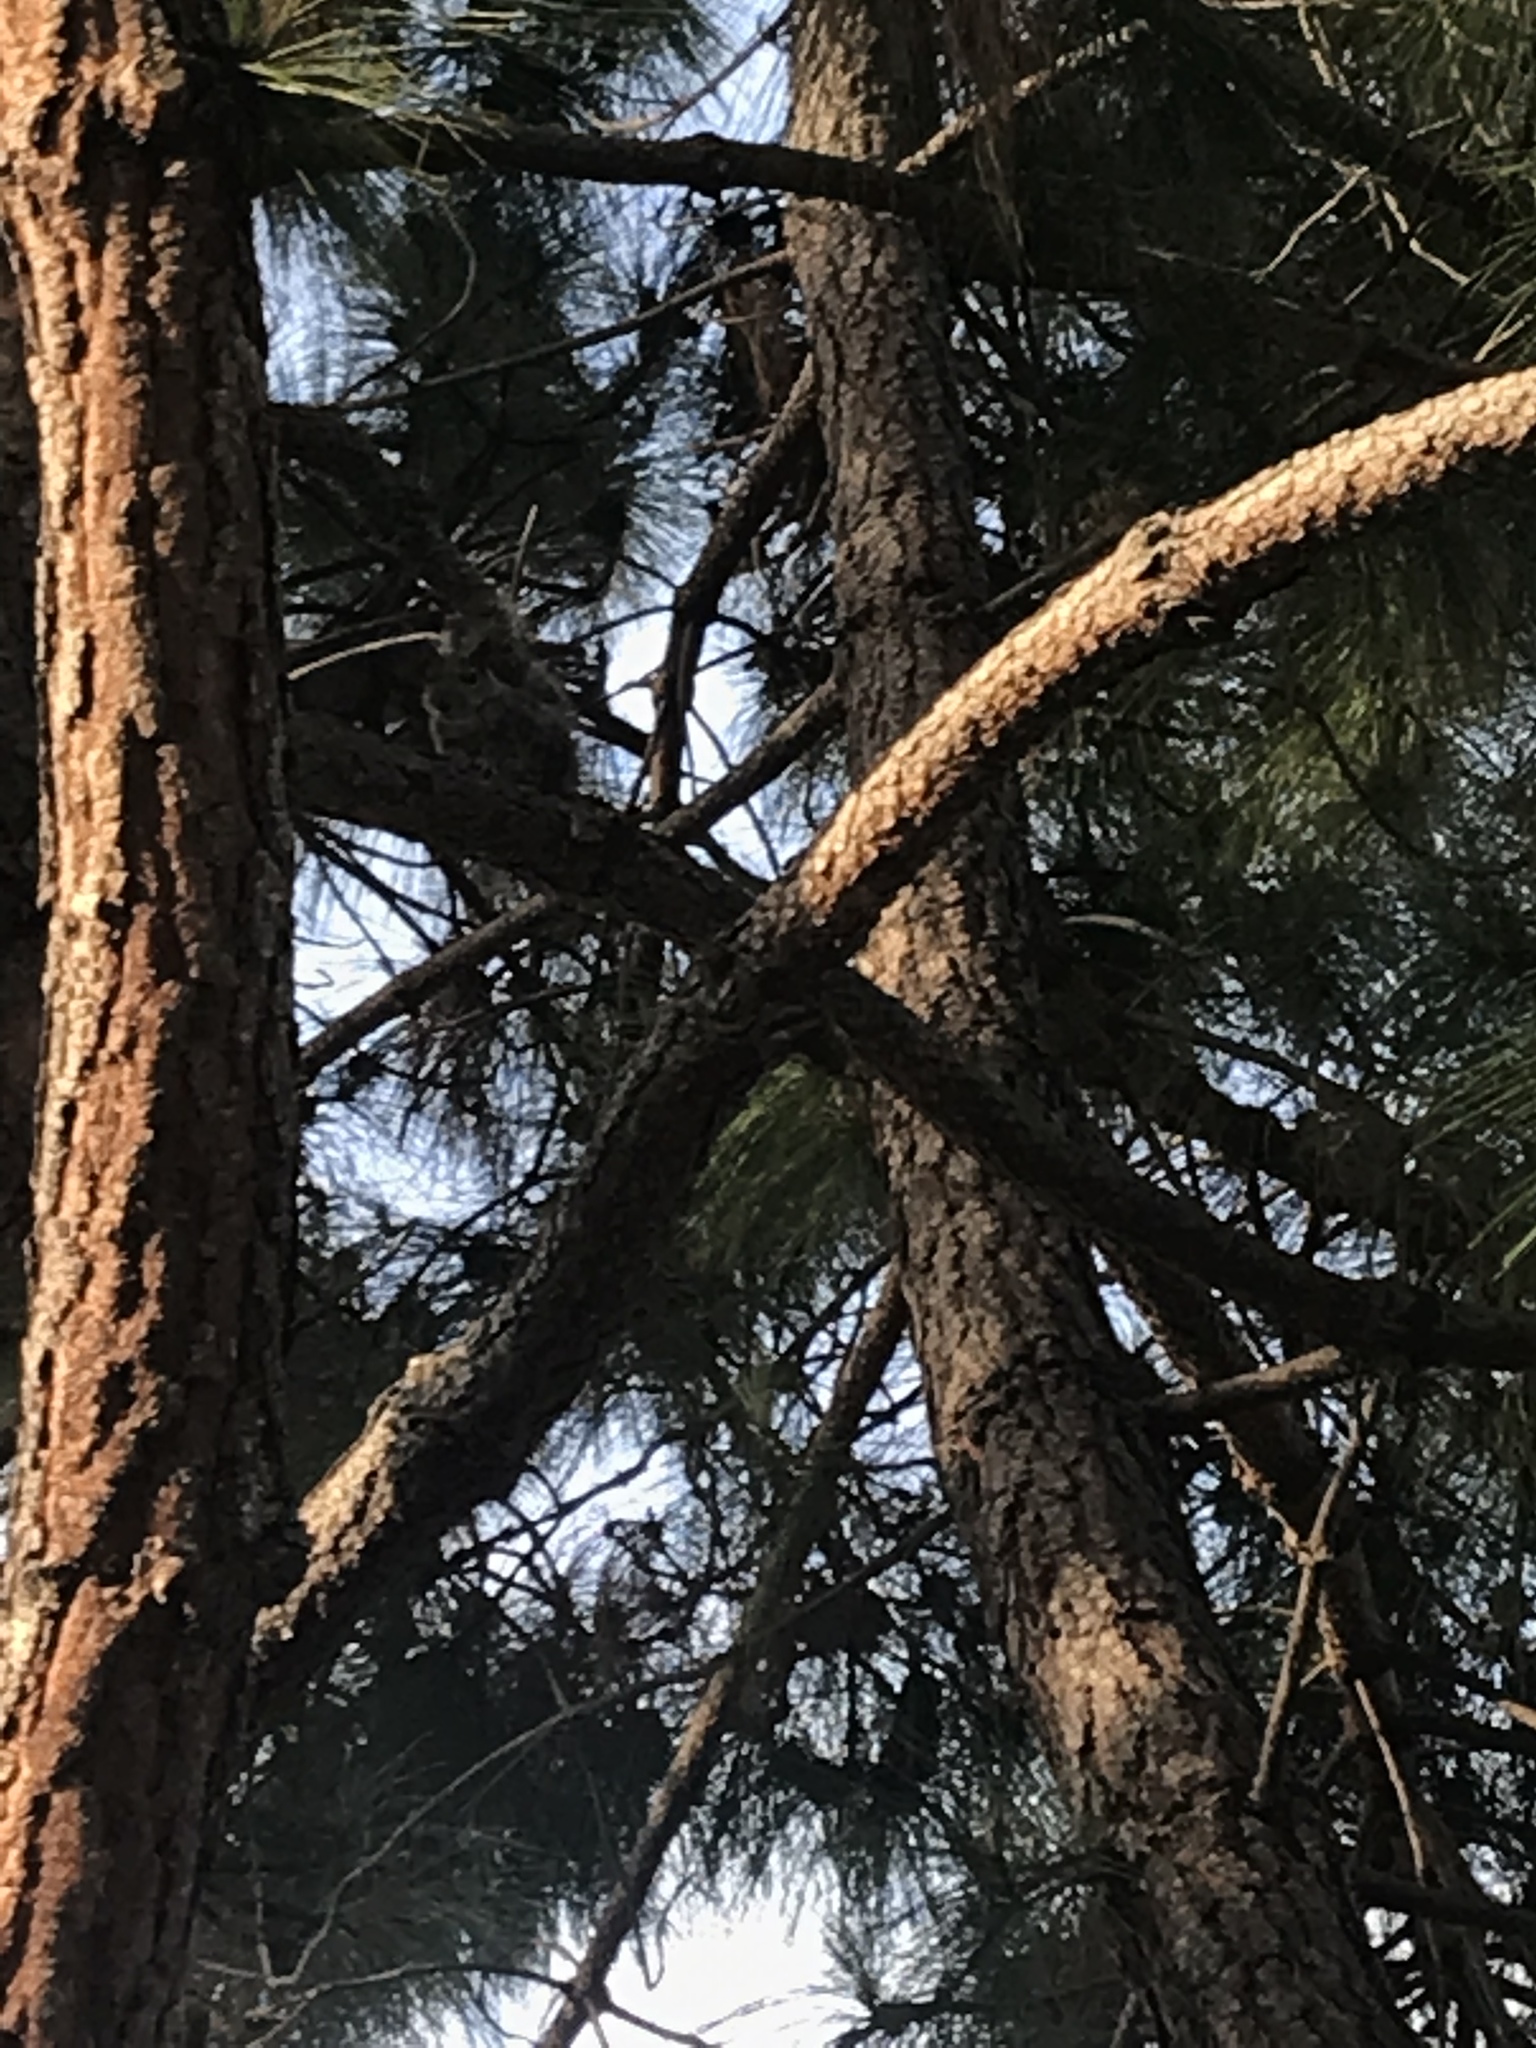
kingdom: Animalia
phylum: Chordata
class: Mammalia
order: Rodentia
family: Sciuridae
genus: Sciurus
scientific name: Sciurus carolinensis
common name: Eastern gray squirrel
